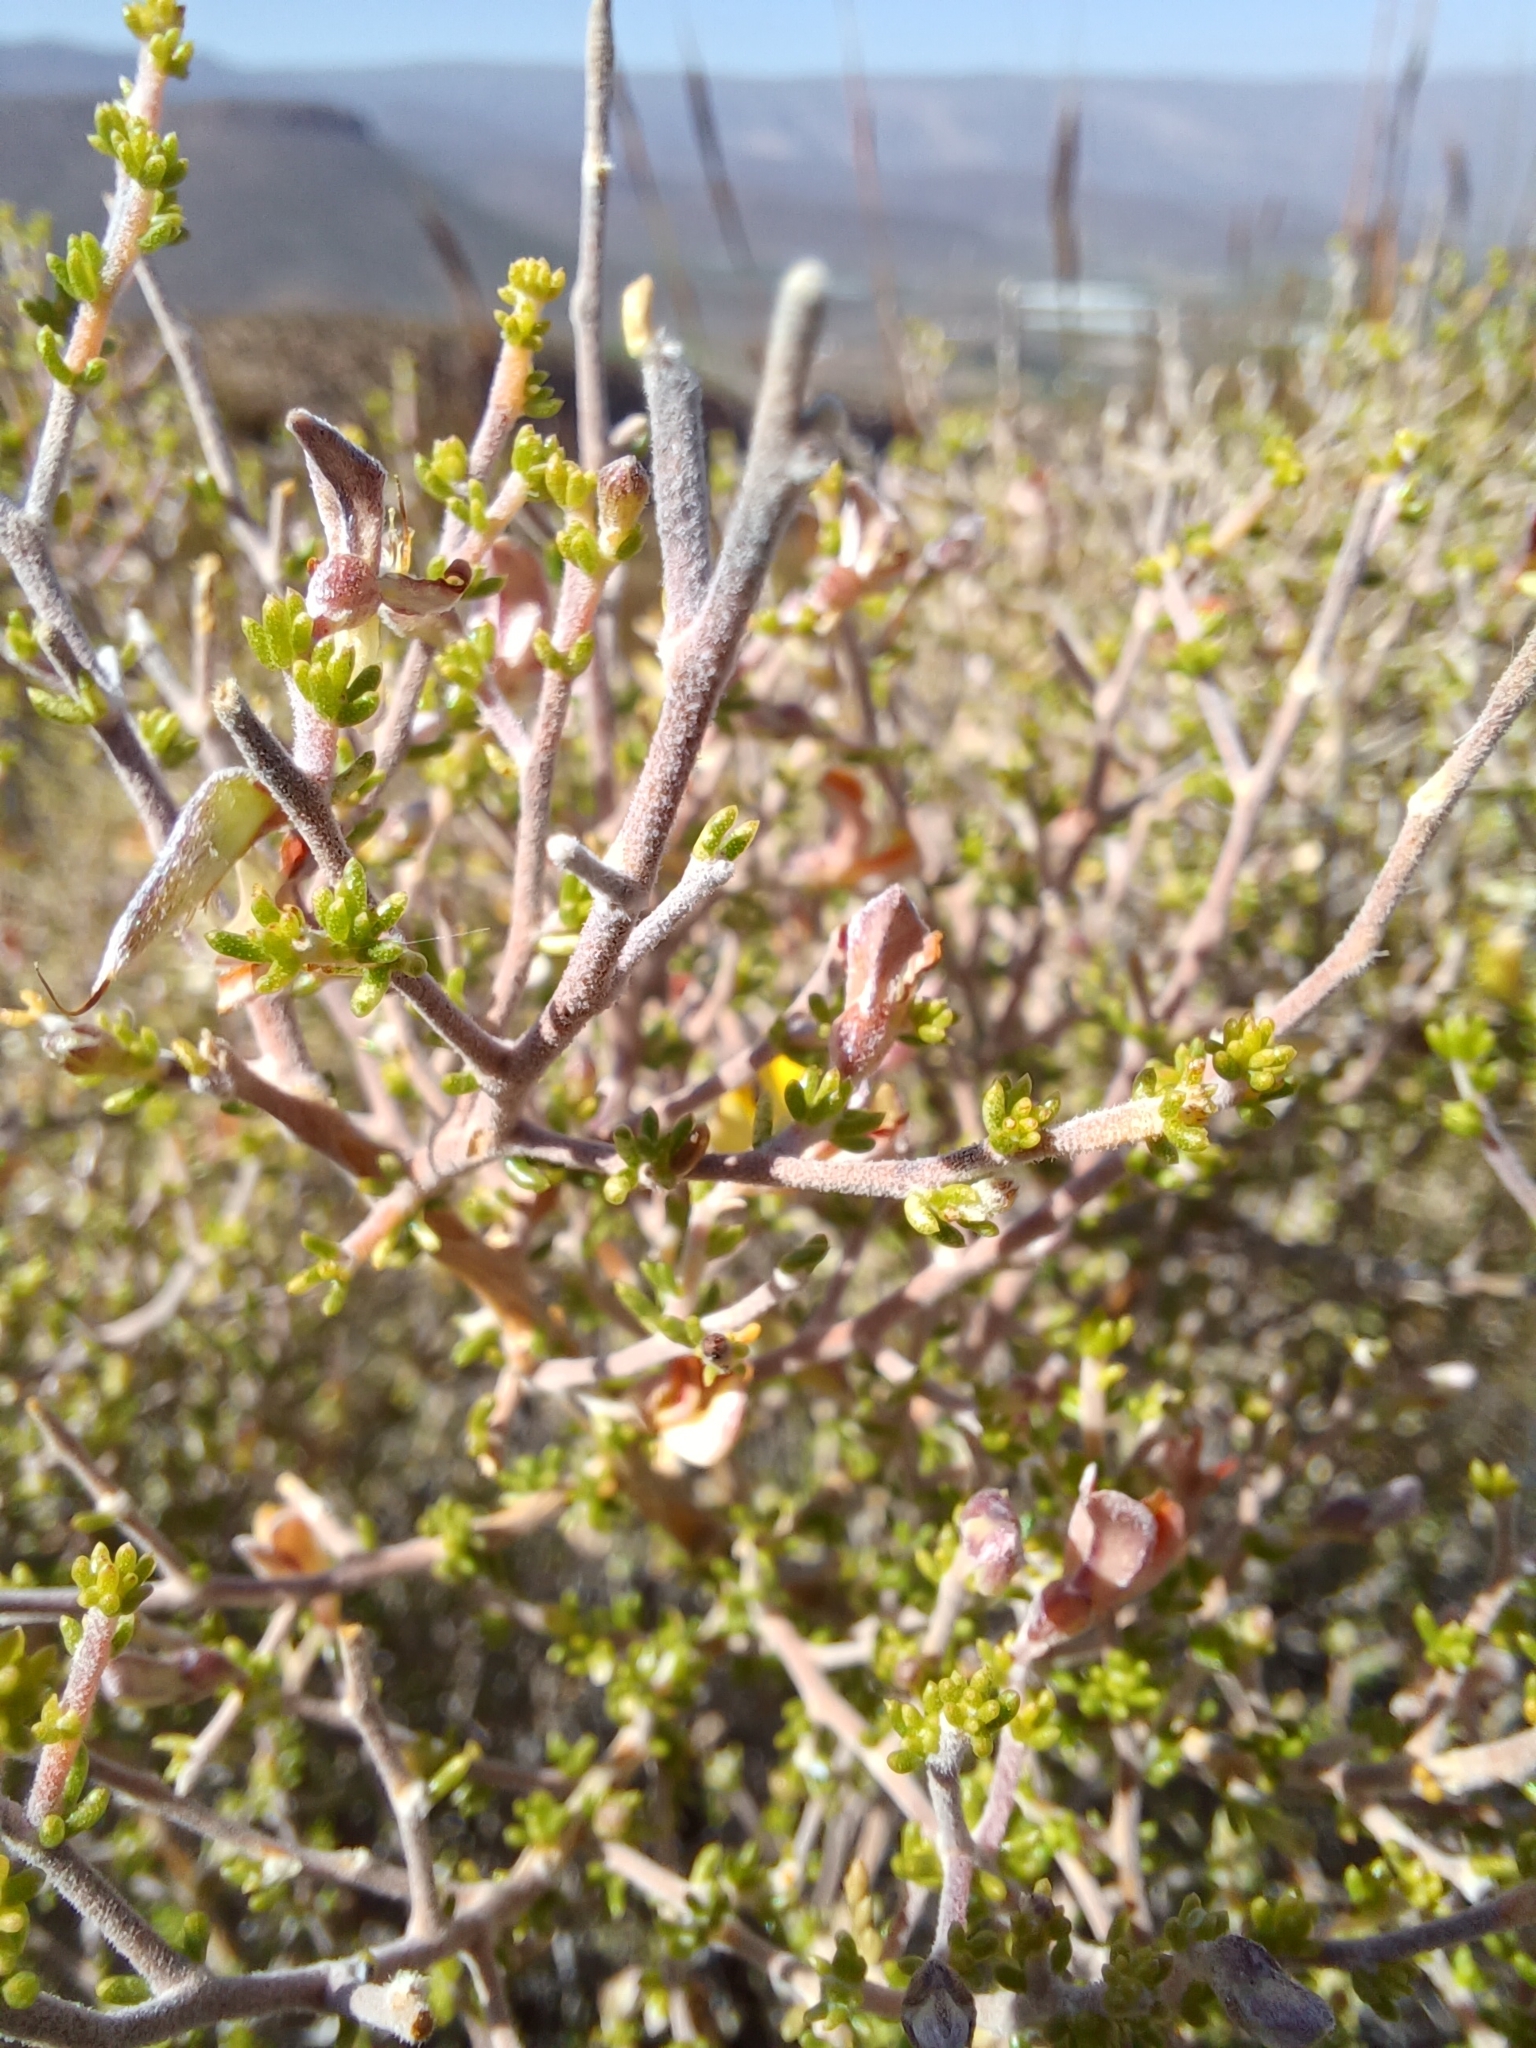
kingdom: Plantae
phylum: Tracheophyta
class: Magnoliopsida
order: Fabales
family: Fabaceae
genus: Aspalathus
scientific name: Aspalathus pilantha
